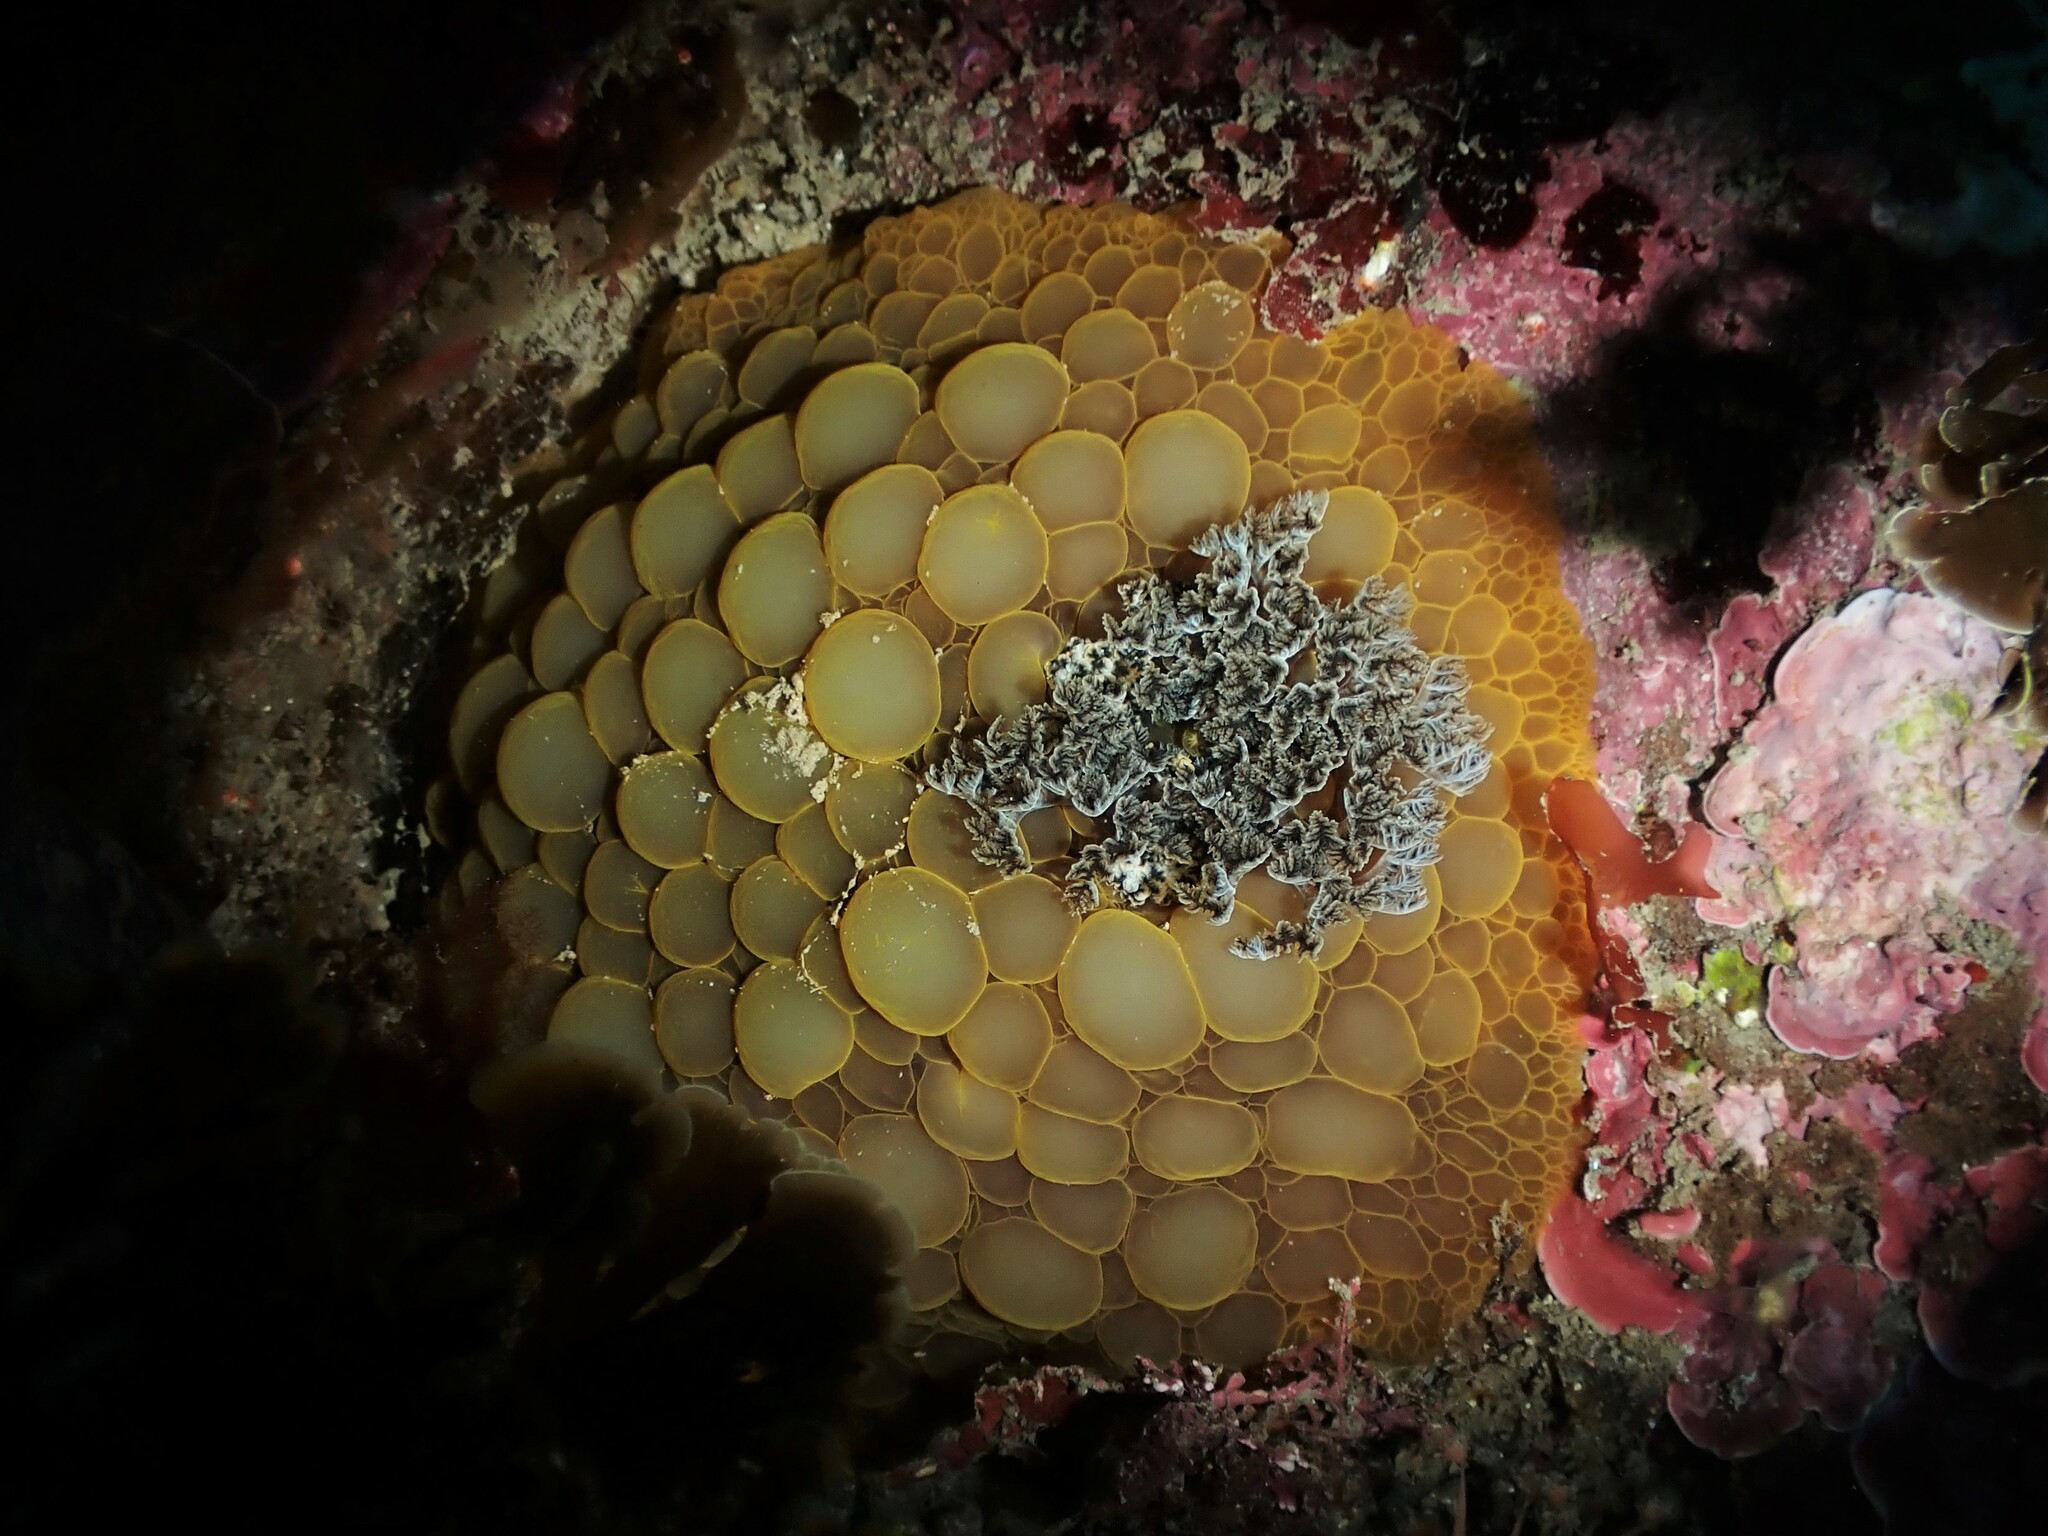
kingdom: Animalia
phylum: Mollusca
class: Gastropoda
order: Nudibranchia
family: Dorididae
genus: Doris
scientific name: Doris wellingtonensis
